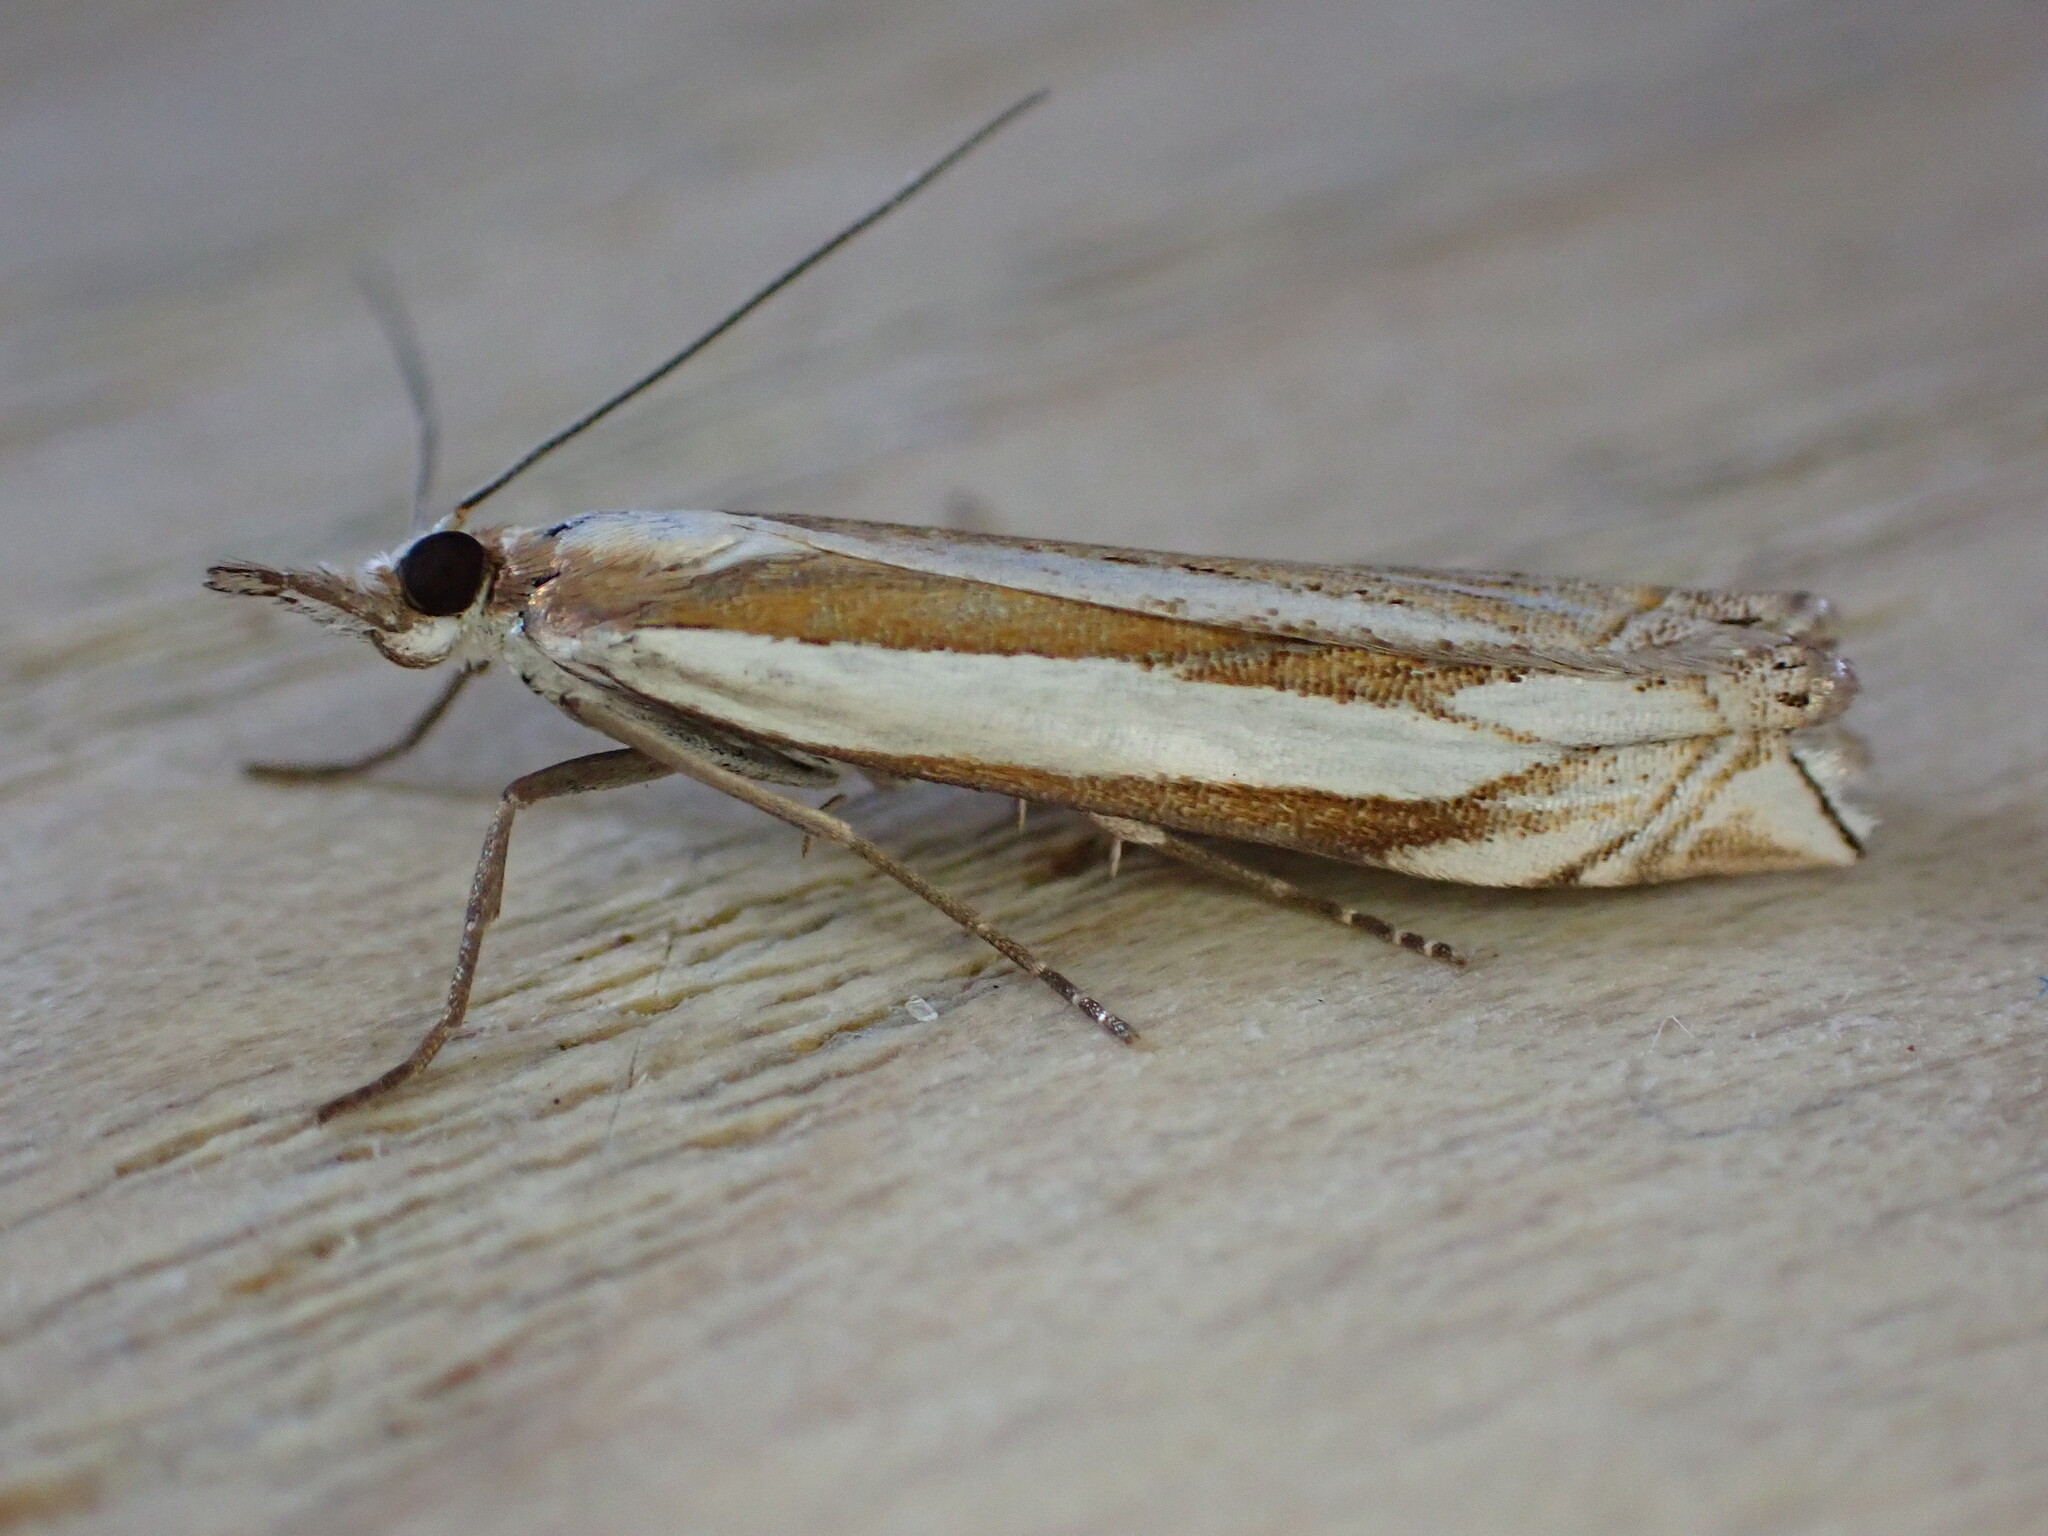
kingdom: Animalia
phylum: Arthropoda
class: Insecta
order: Lepidoptera
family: Crambidae
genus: Crambus
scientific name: Crambus pascuella
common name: Inlaid grass-veneer
